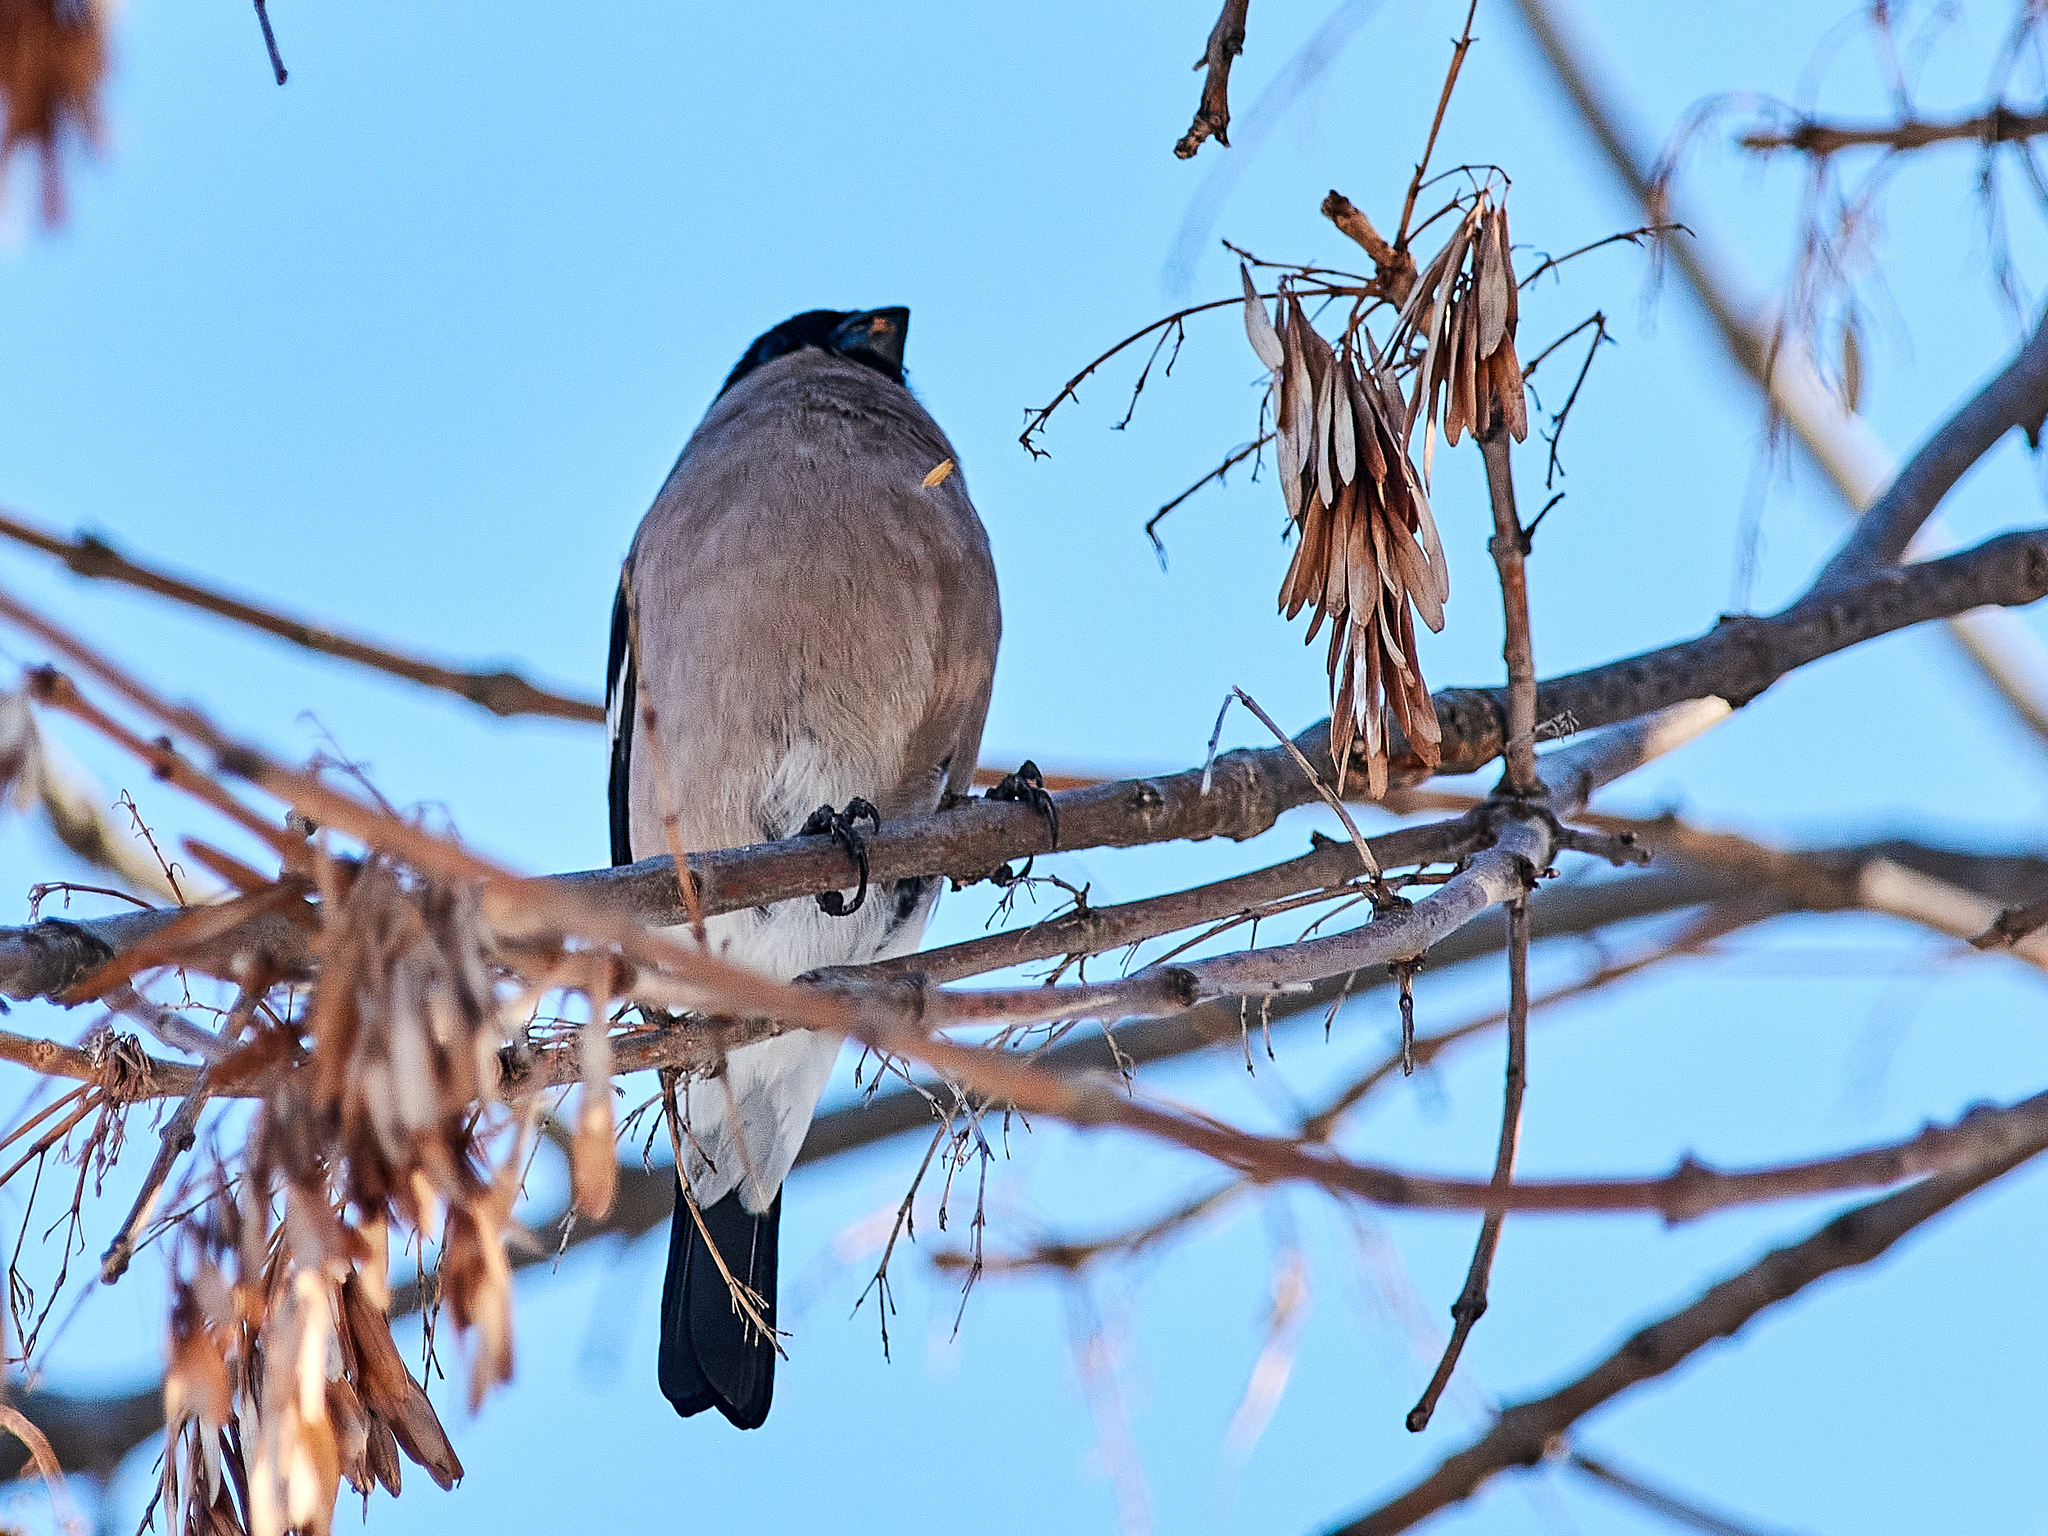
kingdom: Animalia
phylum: Chordata
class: Aves
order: Passeriformes
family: Fringillidae
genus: Pyrrhula
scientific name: Pyrrhula pyrrhula
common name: Eurasian bullfinch
